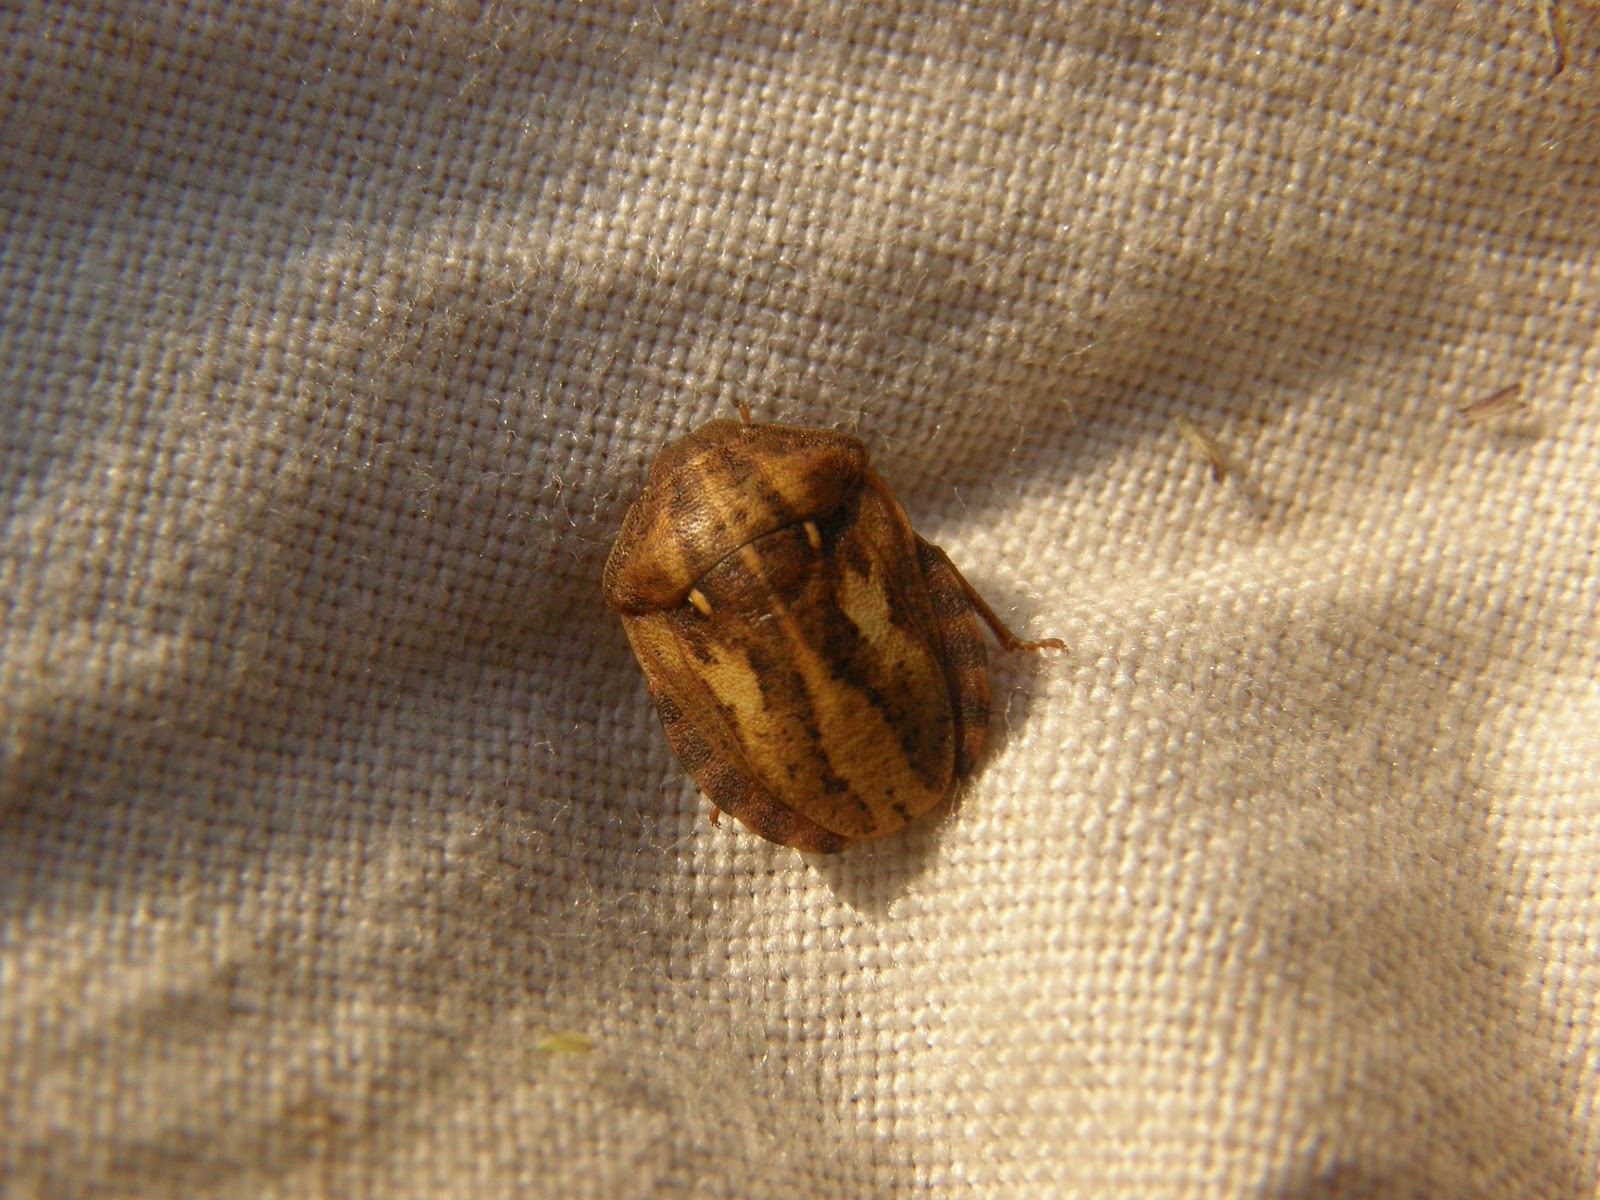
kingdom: Animalia
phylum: Arthropoda
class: Insecta
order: Hemiptera
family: Scutelleridae
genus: Eurygaster
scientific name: Eurygaster testudinaria
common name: Tortoise bug
